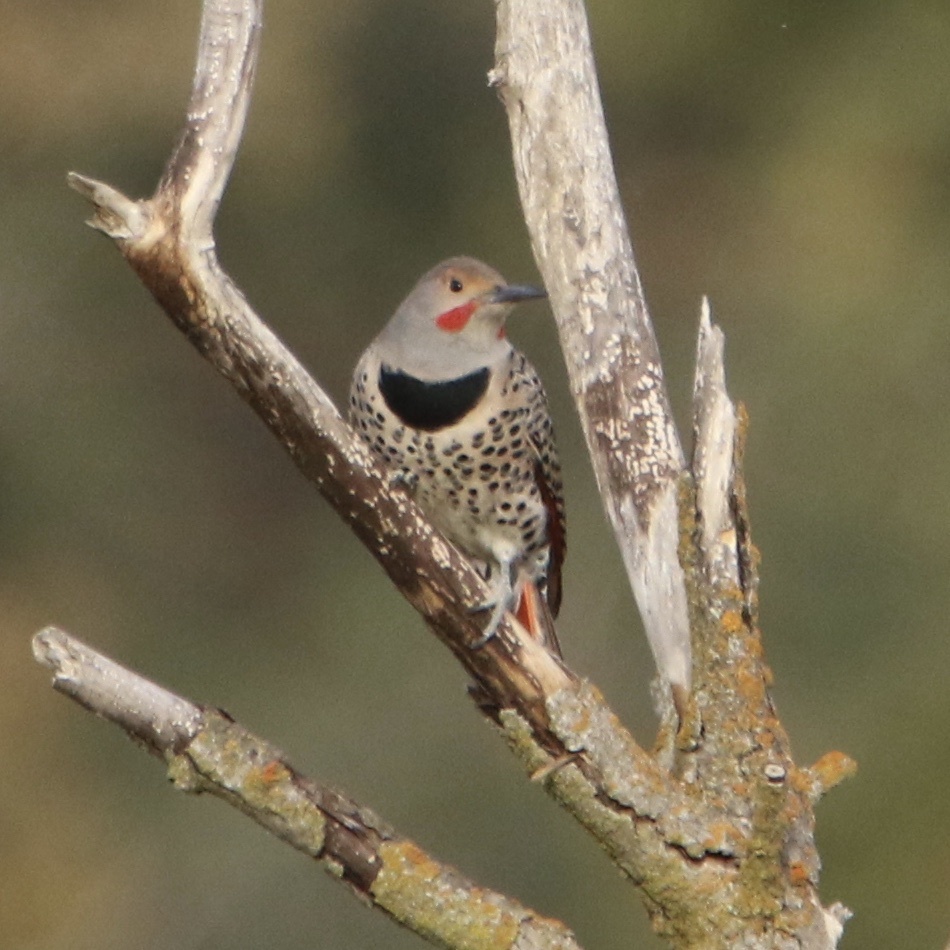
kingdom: Animalia
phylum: Chordata
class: Aves
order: Piciformes
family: Picidae
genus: Colaptes
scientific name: Colaptes auratus
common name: Northern flicker
